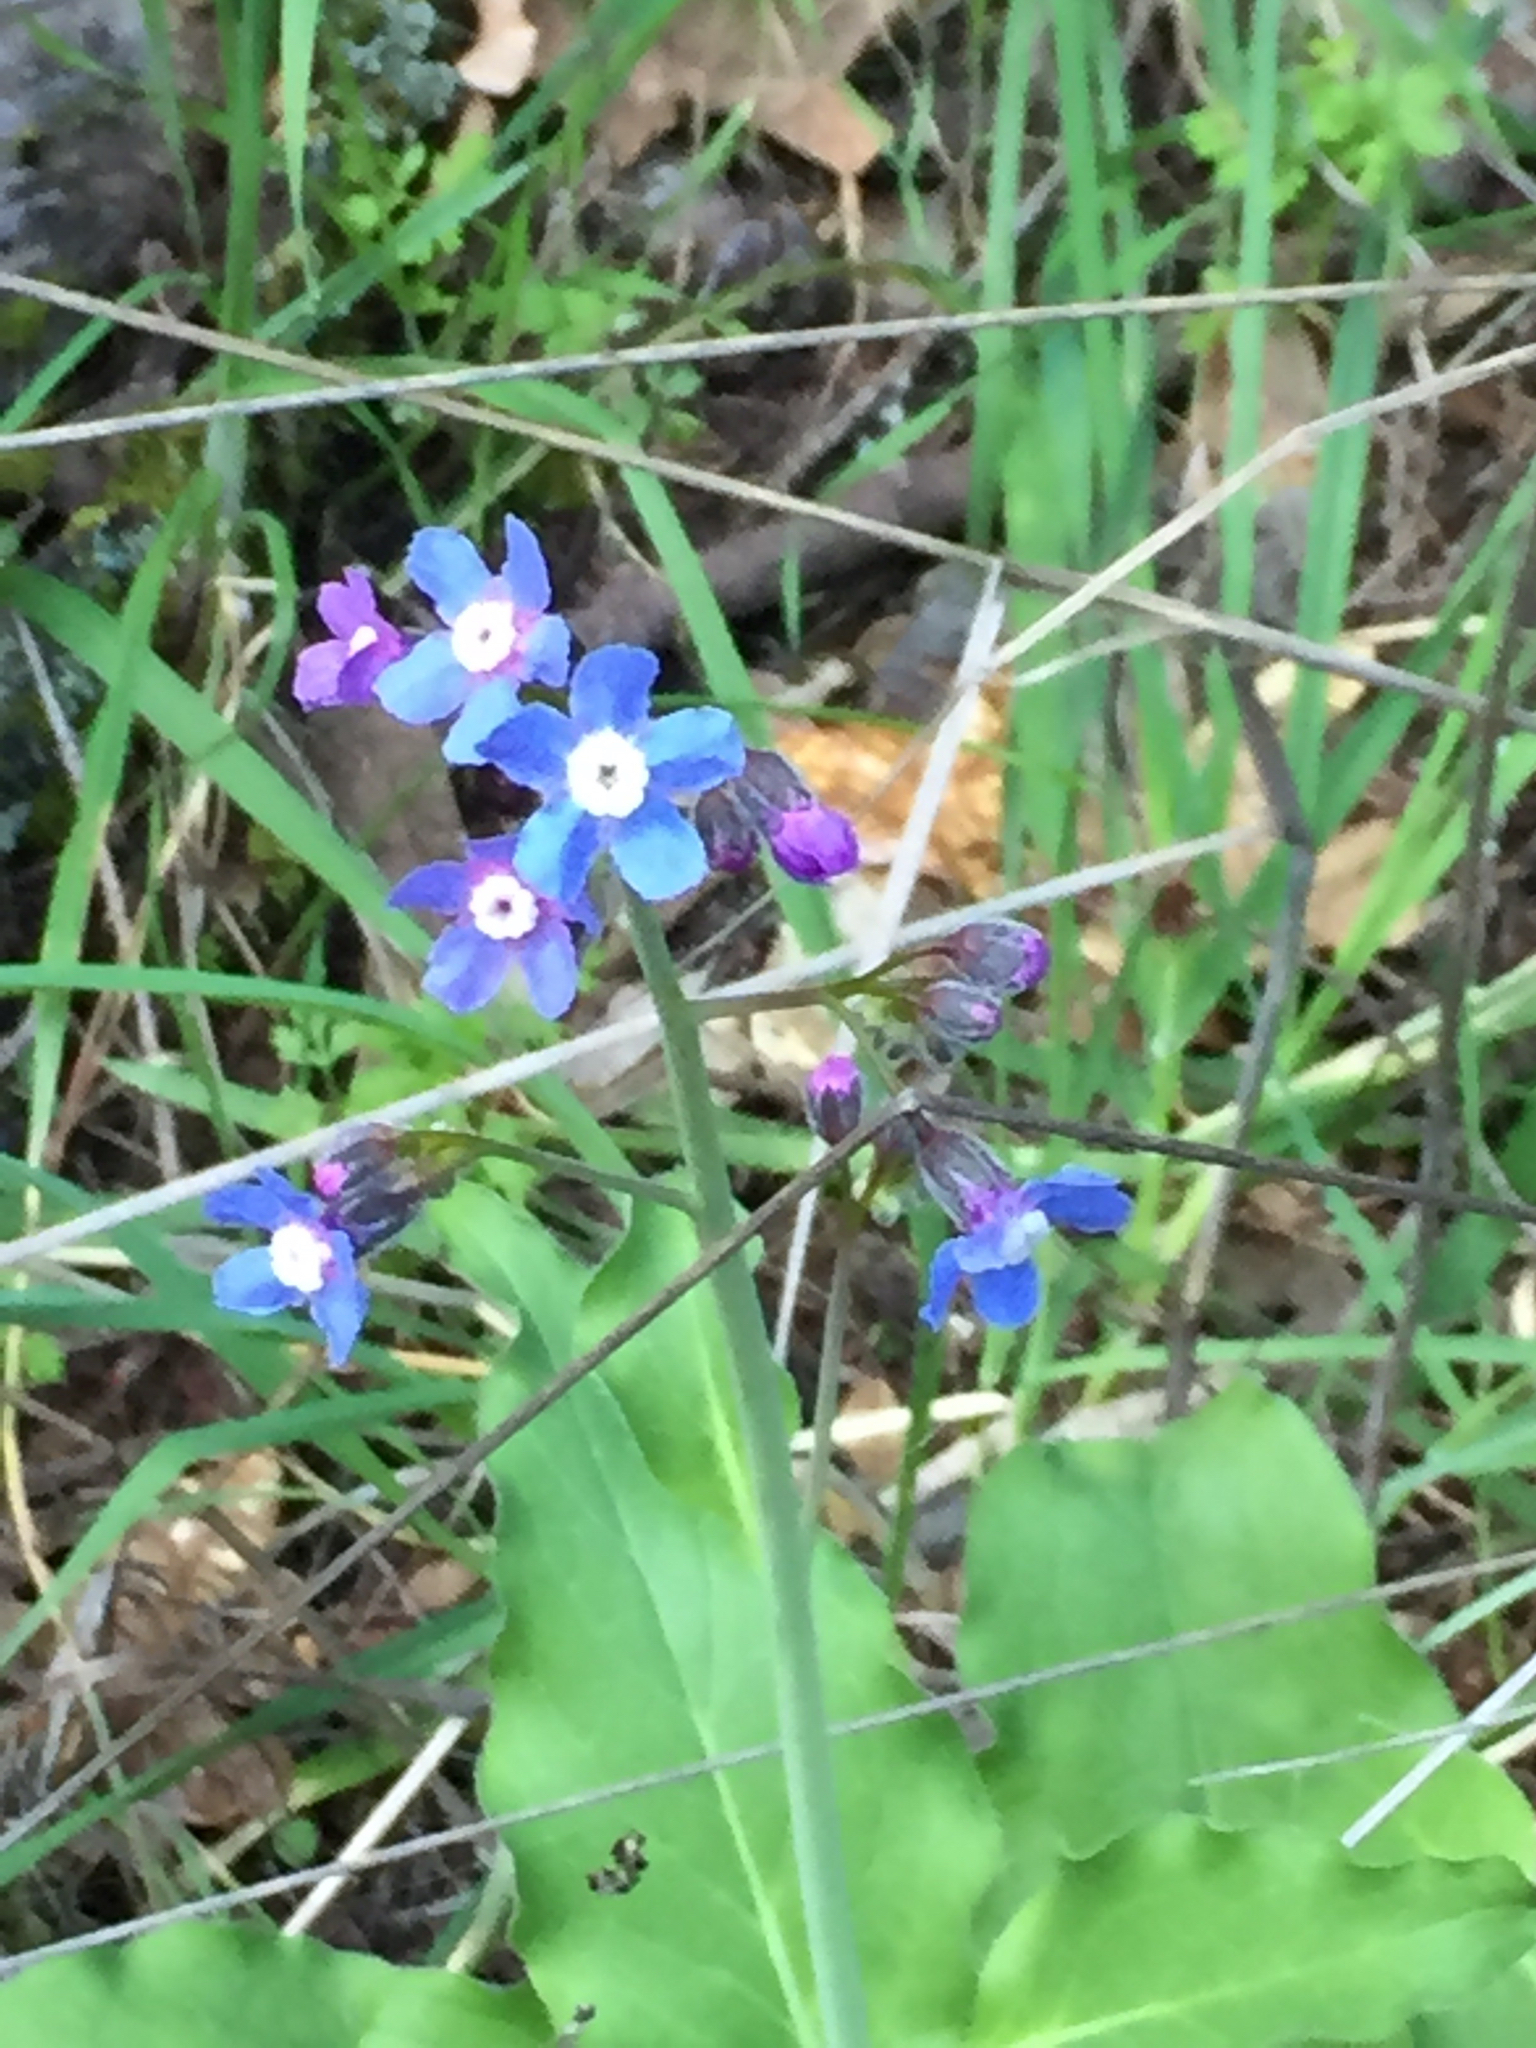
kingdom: Plantae
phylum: Tracheophyta
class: Magnoliopsida
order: Boraginales
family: Boraginaceae
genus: Adelinia
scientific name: Adelinia grande
